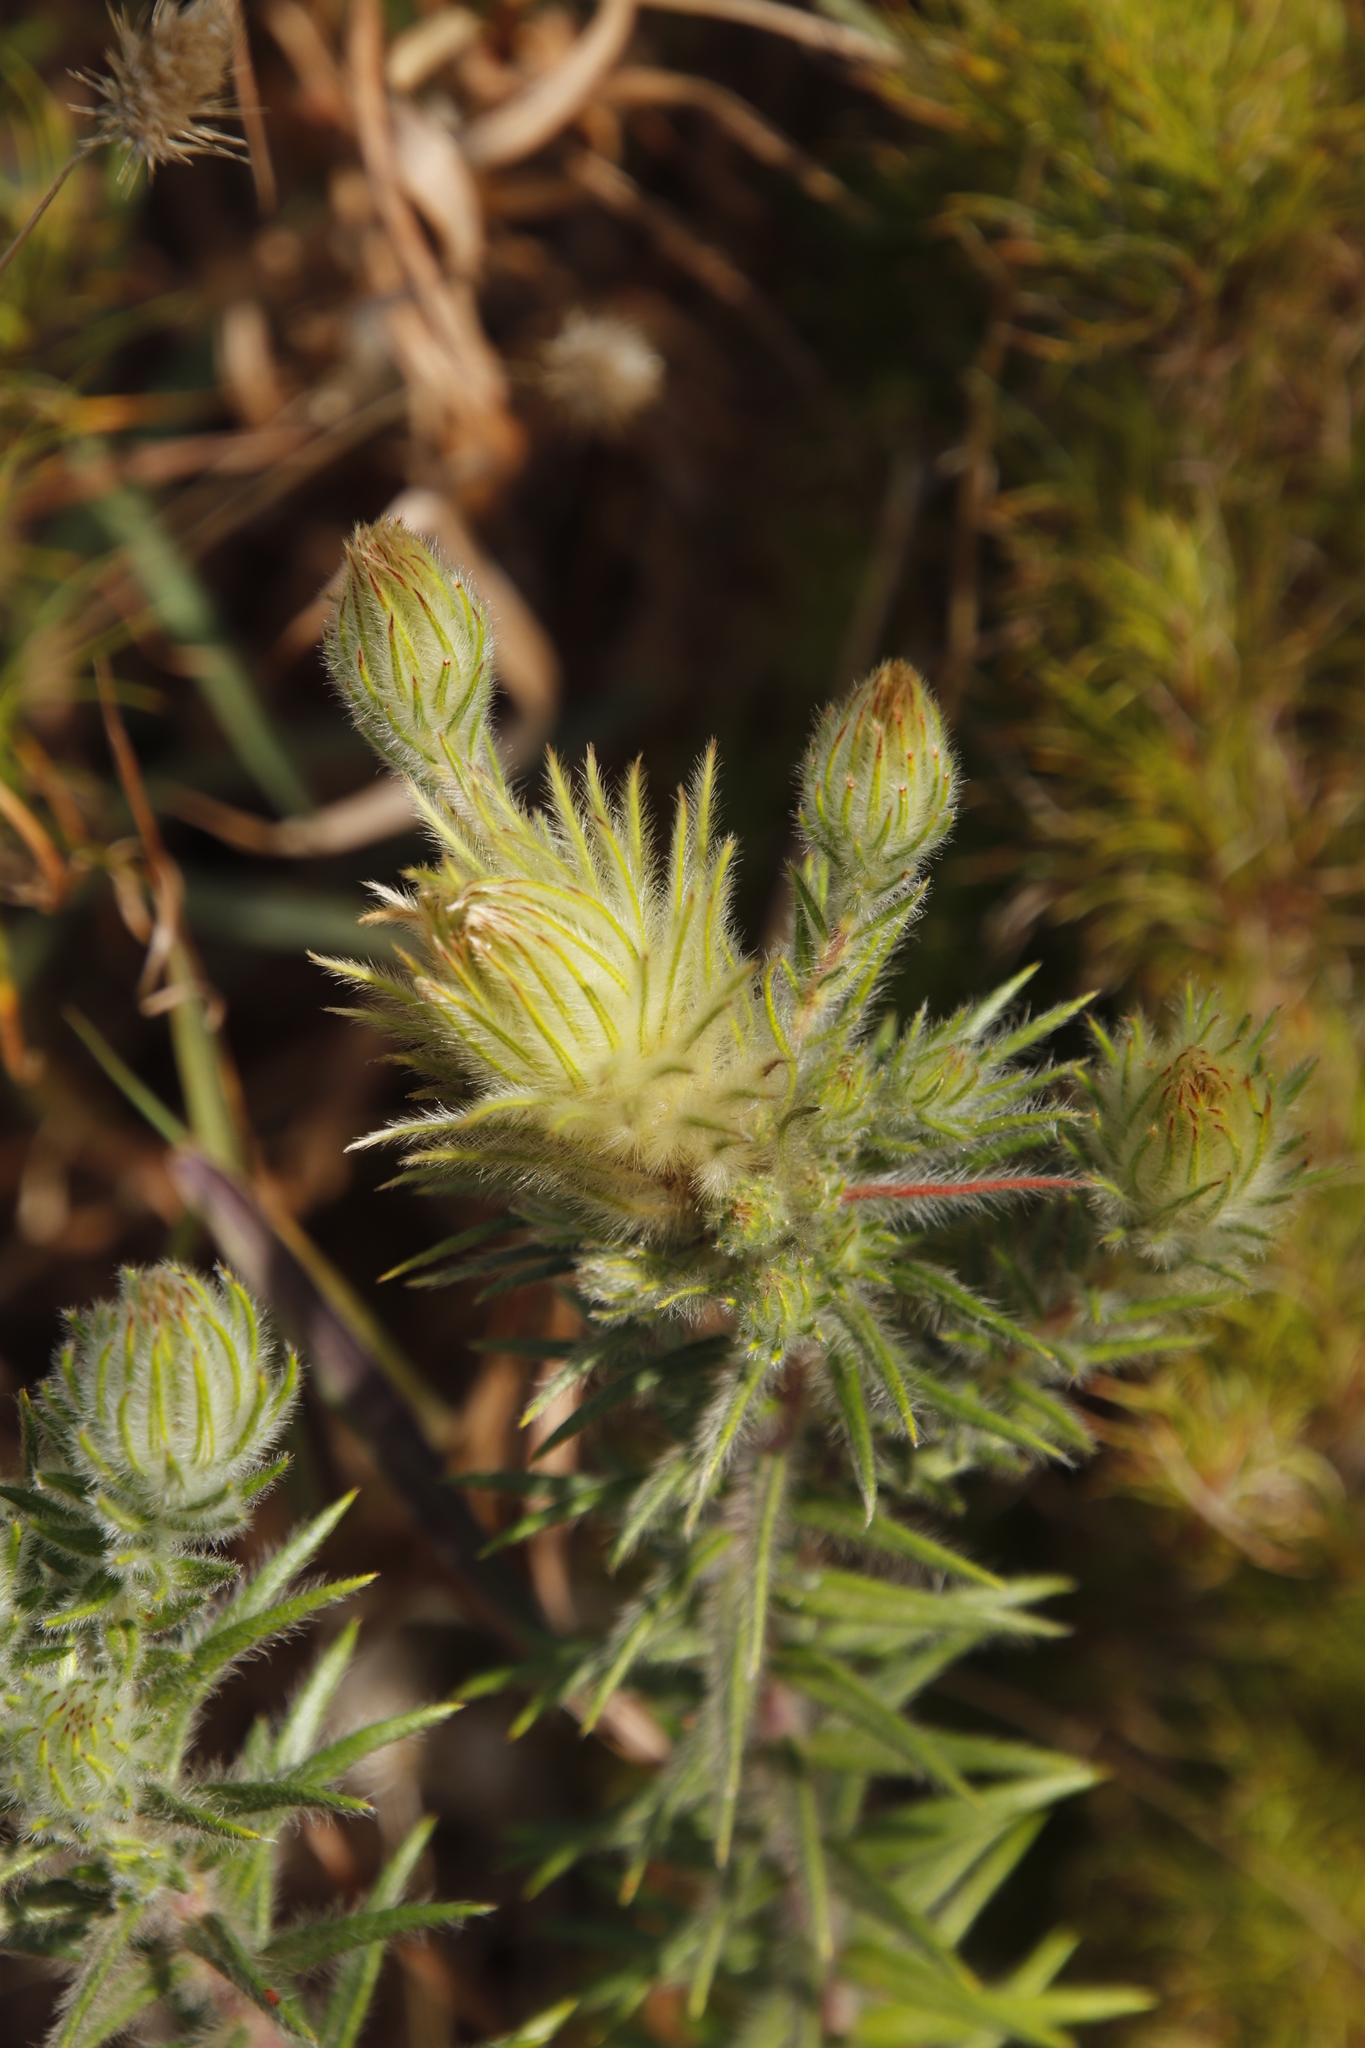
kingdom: Plantae
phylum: Tracheophyta
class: Magnoliopsida
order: Rosales
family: Rhamnaceae
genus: Phylica
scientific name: Phylica pubescens
